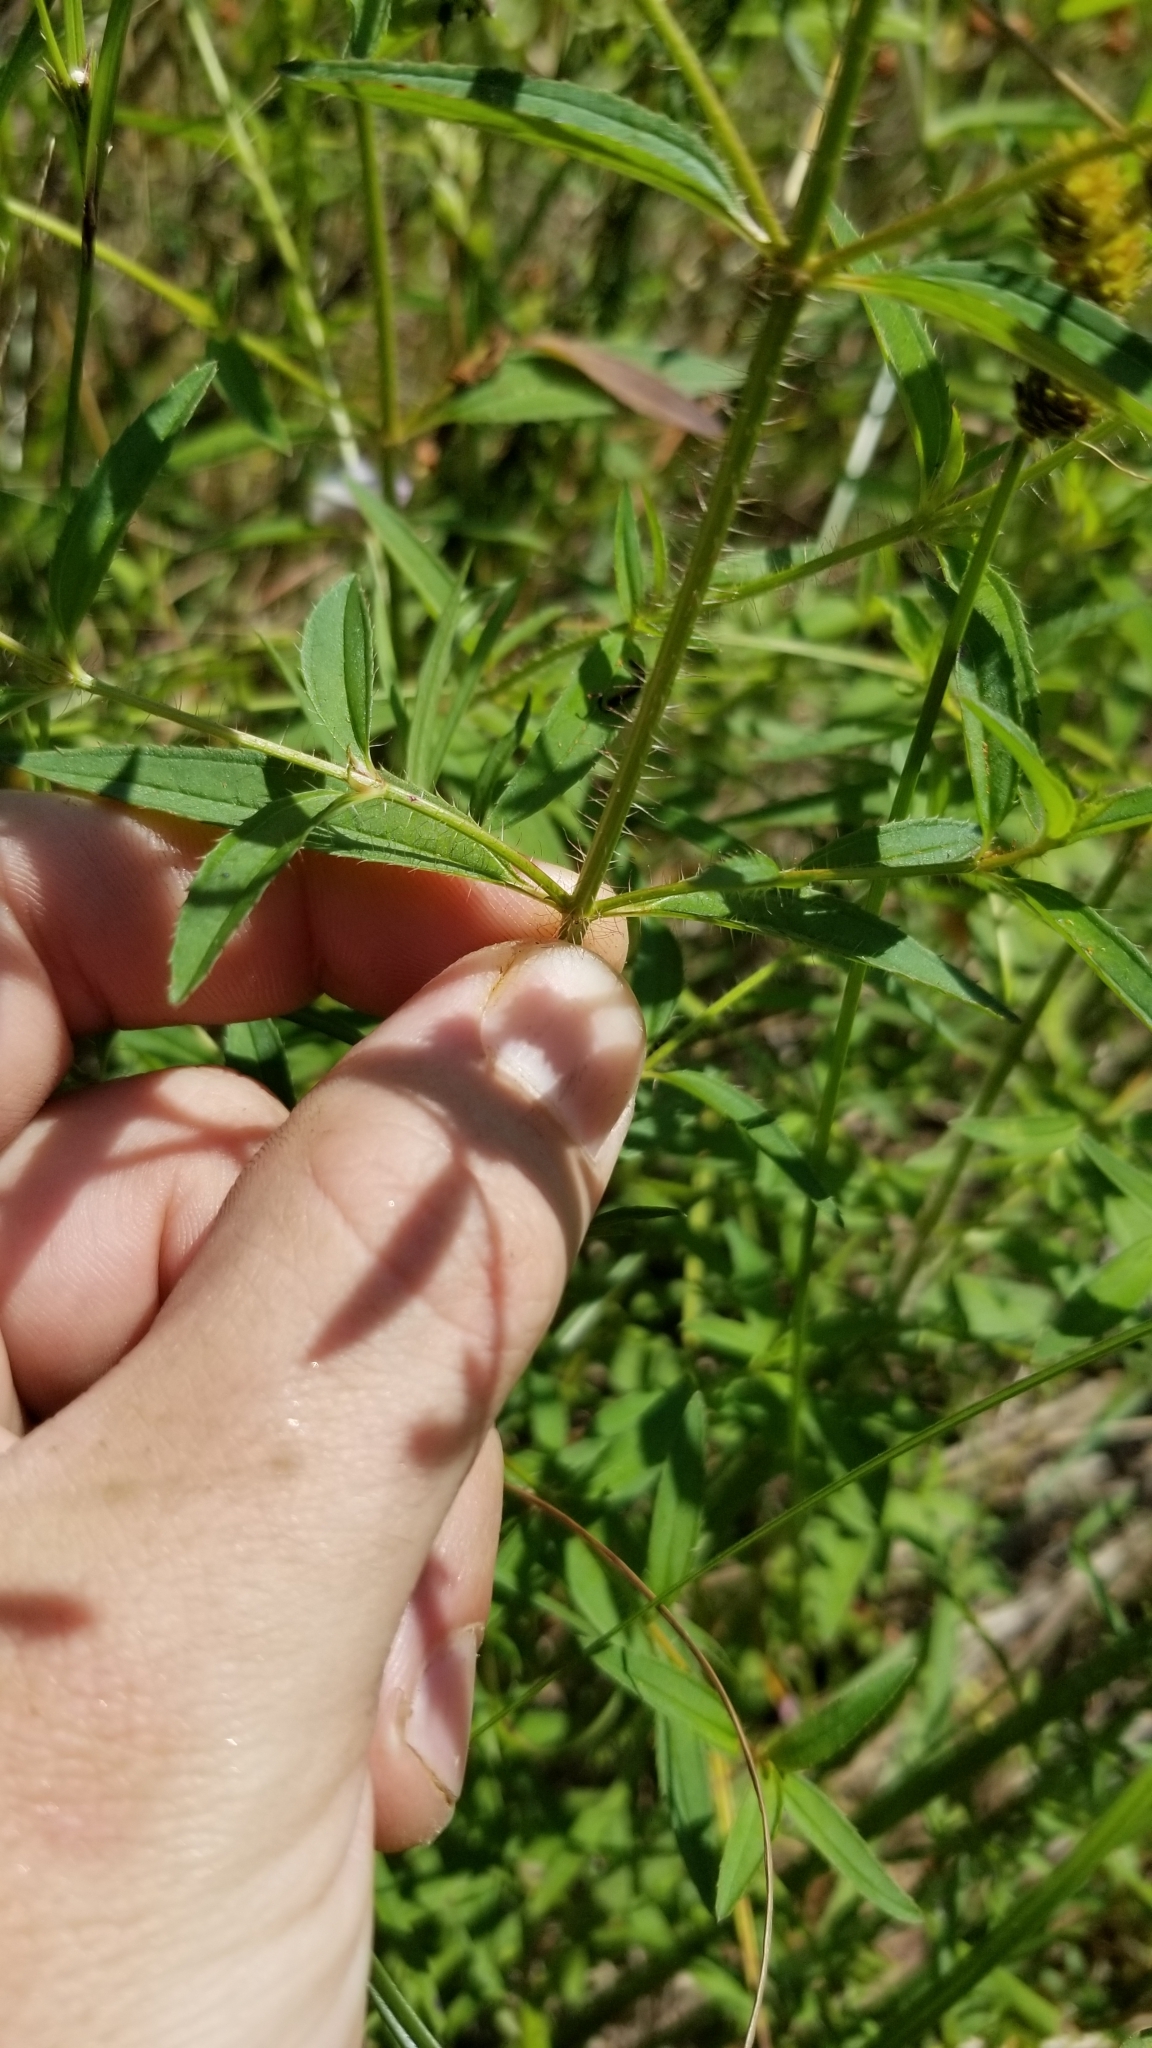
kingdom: Plantae
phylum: Tracheophyta
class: Magnoliopsida
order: Myrtales
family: Melastomataceae
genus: Rhexia
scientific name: Rhexia mariana
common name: Dull meadow-pitcher
